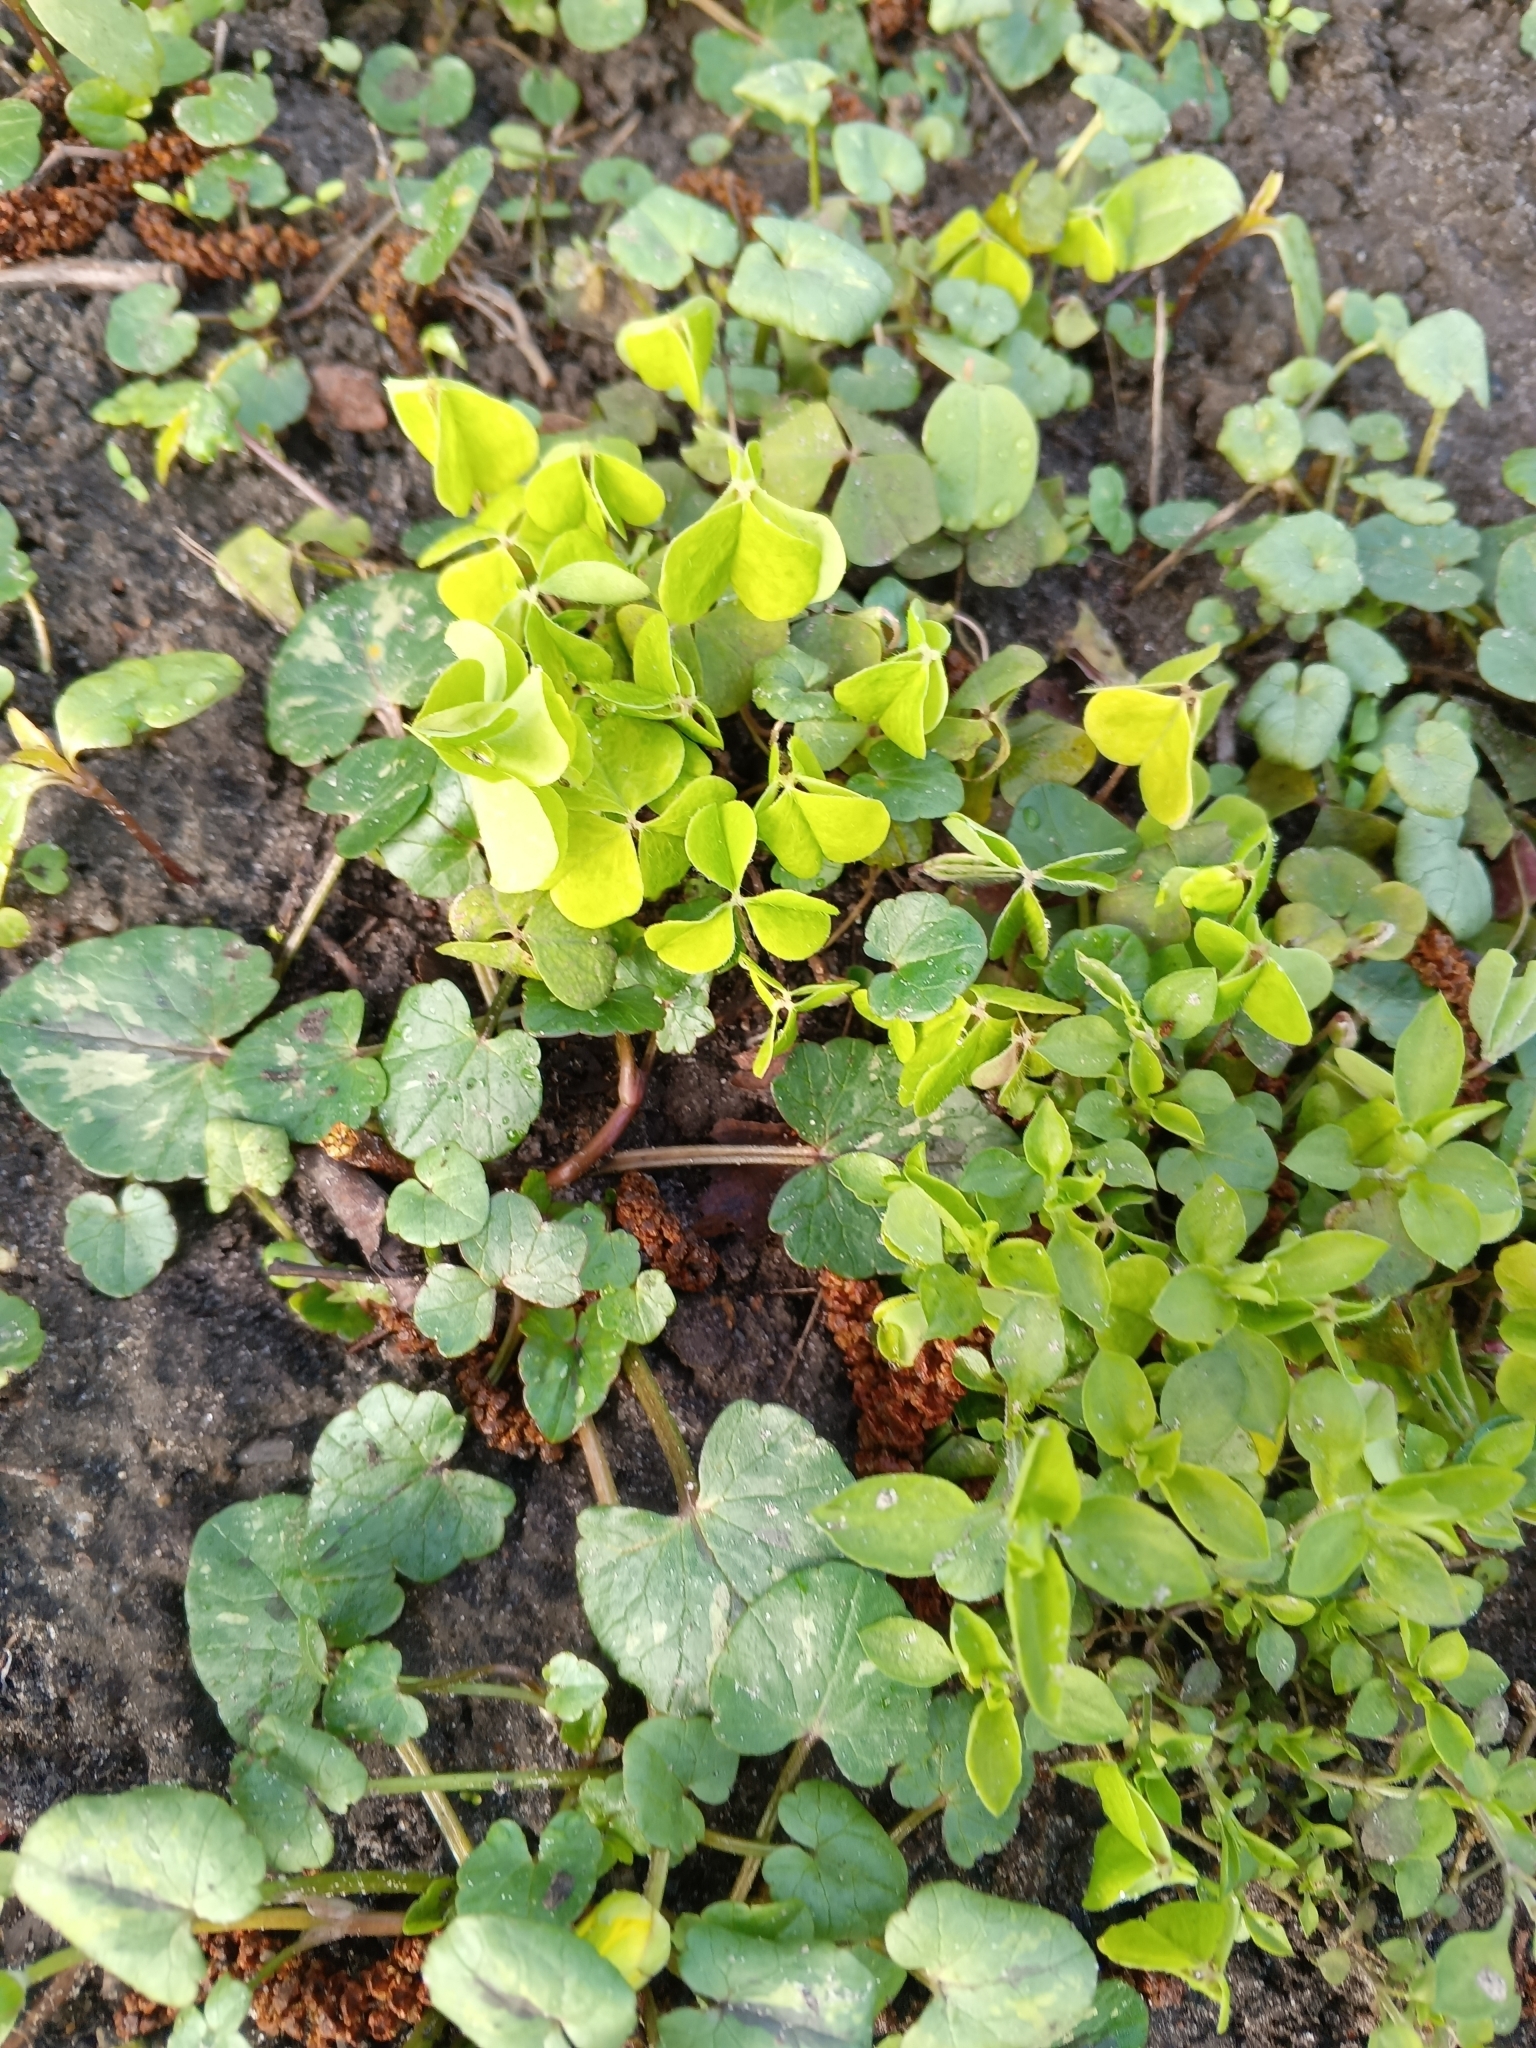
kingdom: Plantae
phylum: Tracheophyta
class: Magnoliopsida
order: Oxalidales
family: Oxalidaceae
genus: Oxalis
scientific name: Oxalis acetosella
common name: Wood-sorrel
